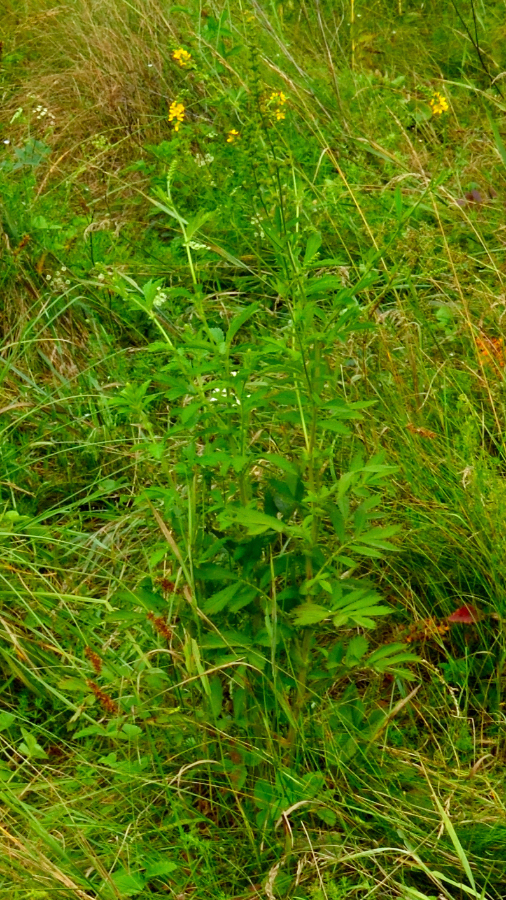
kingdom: Plantae
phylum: Tracheophyta
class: Magnoliopsida
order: Rosales
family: Rosaceae
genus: Agrimonia
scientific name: Agrimonia pilosa
